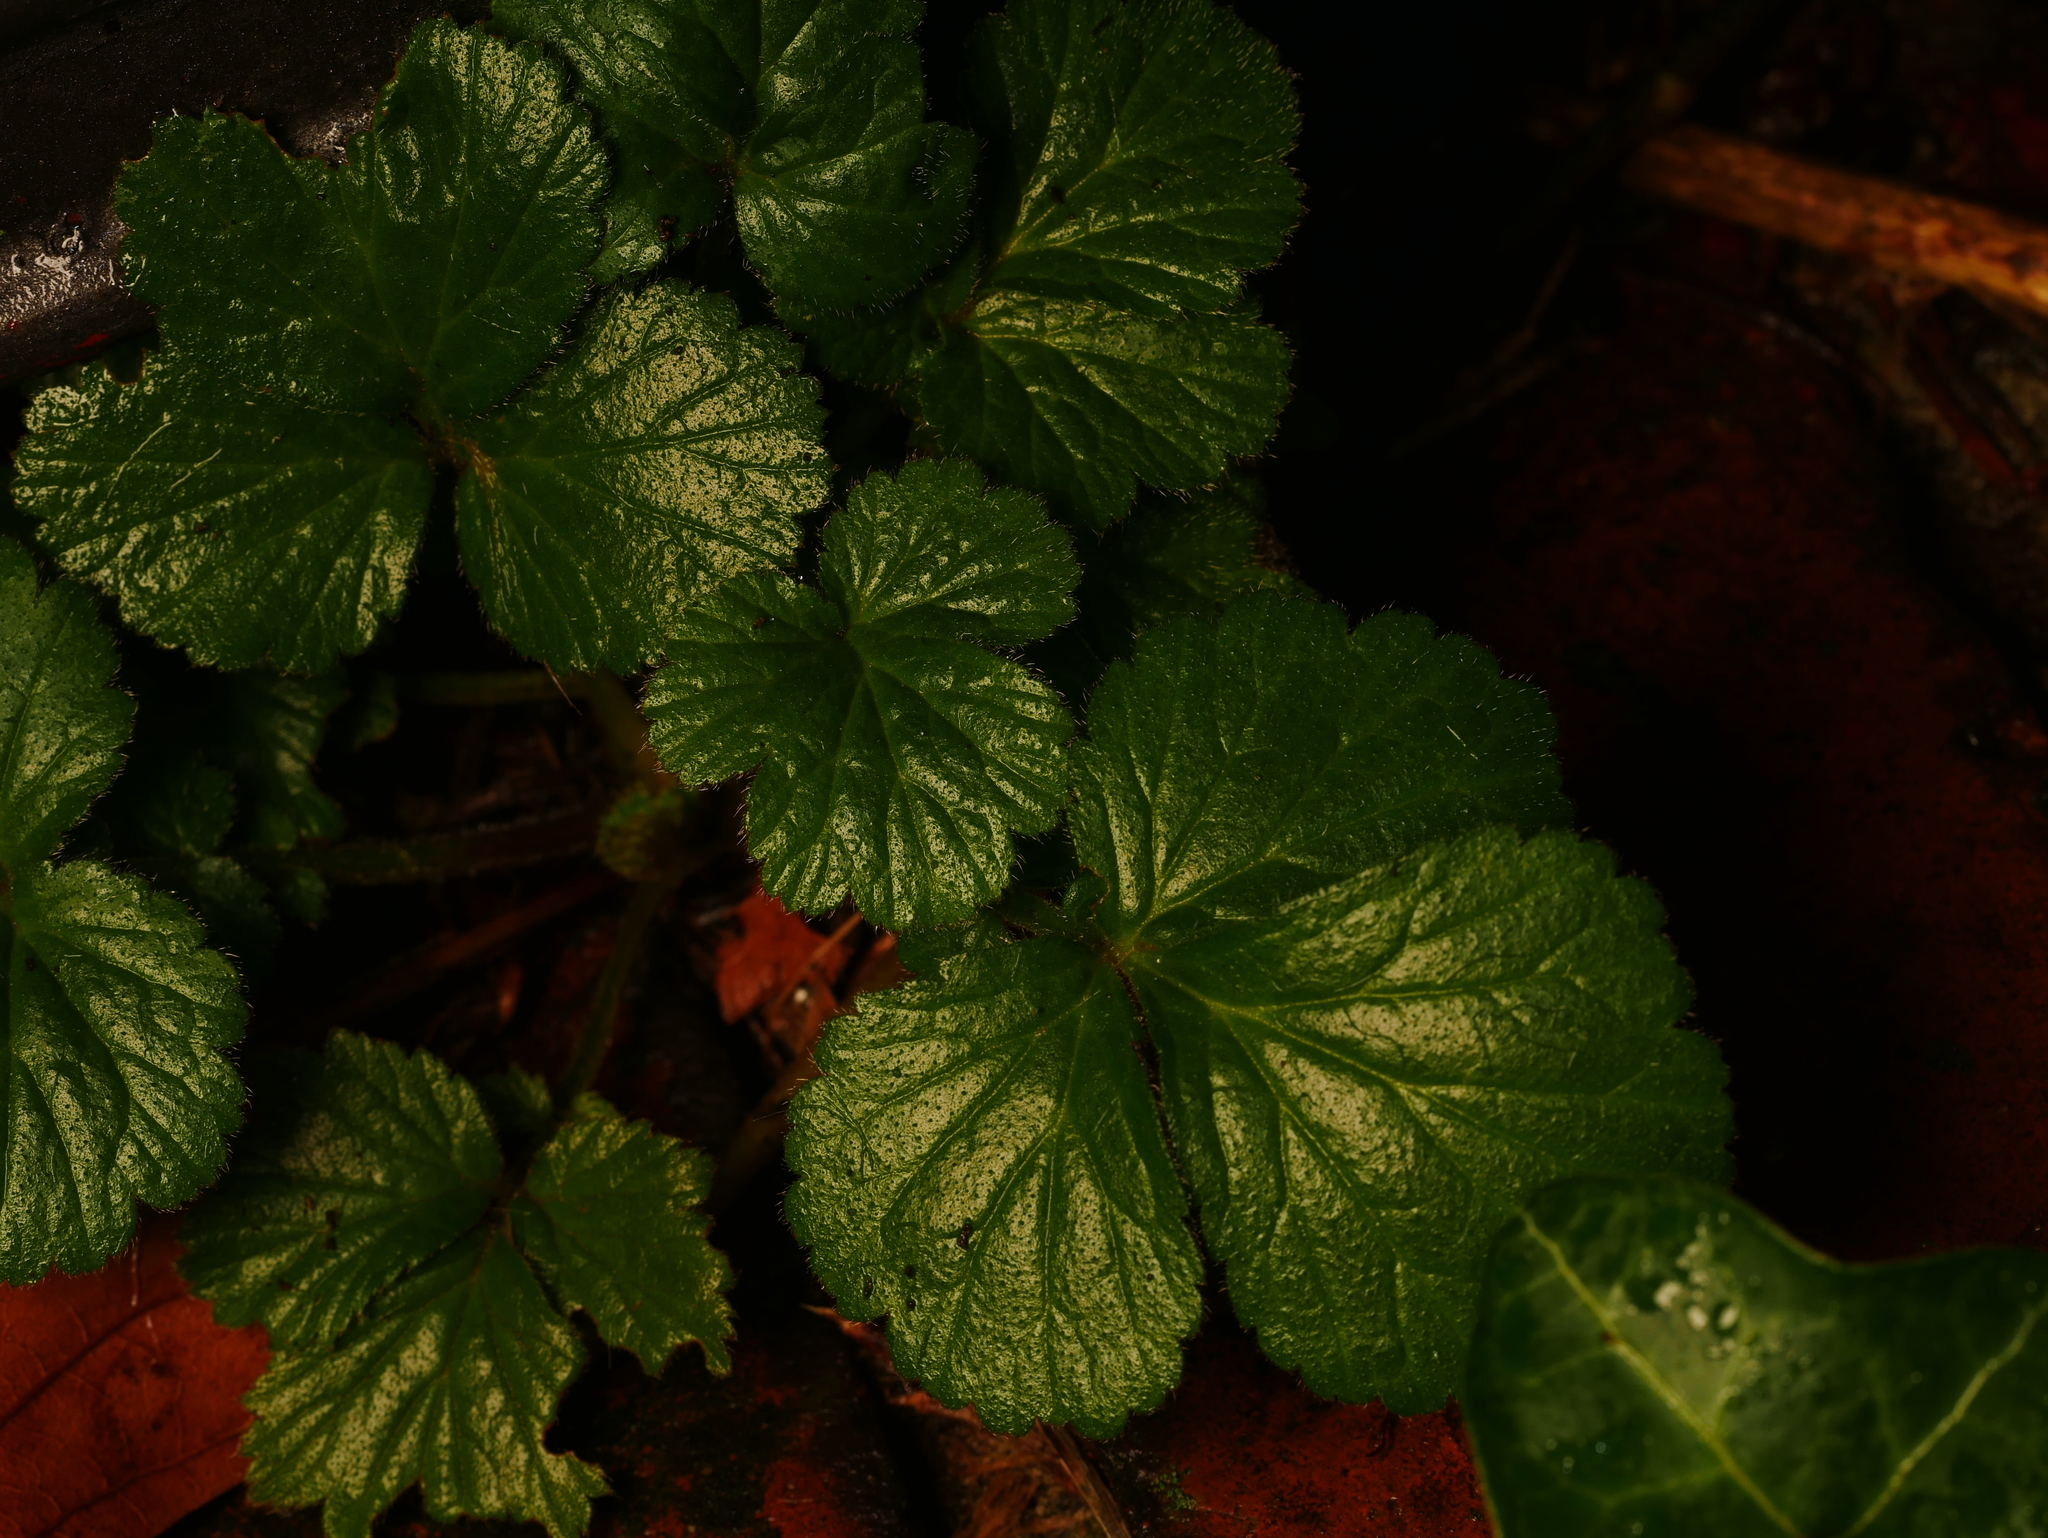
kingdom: Plantae
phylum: Tracheophyta
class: Magnoliopsida
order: Rosales
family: Rosaceae
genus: Geum
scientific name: Geum urbanum
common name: Wood avens
